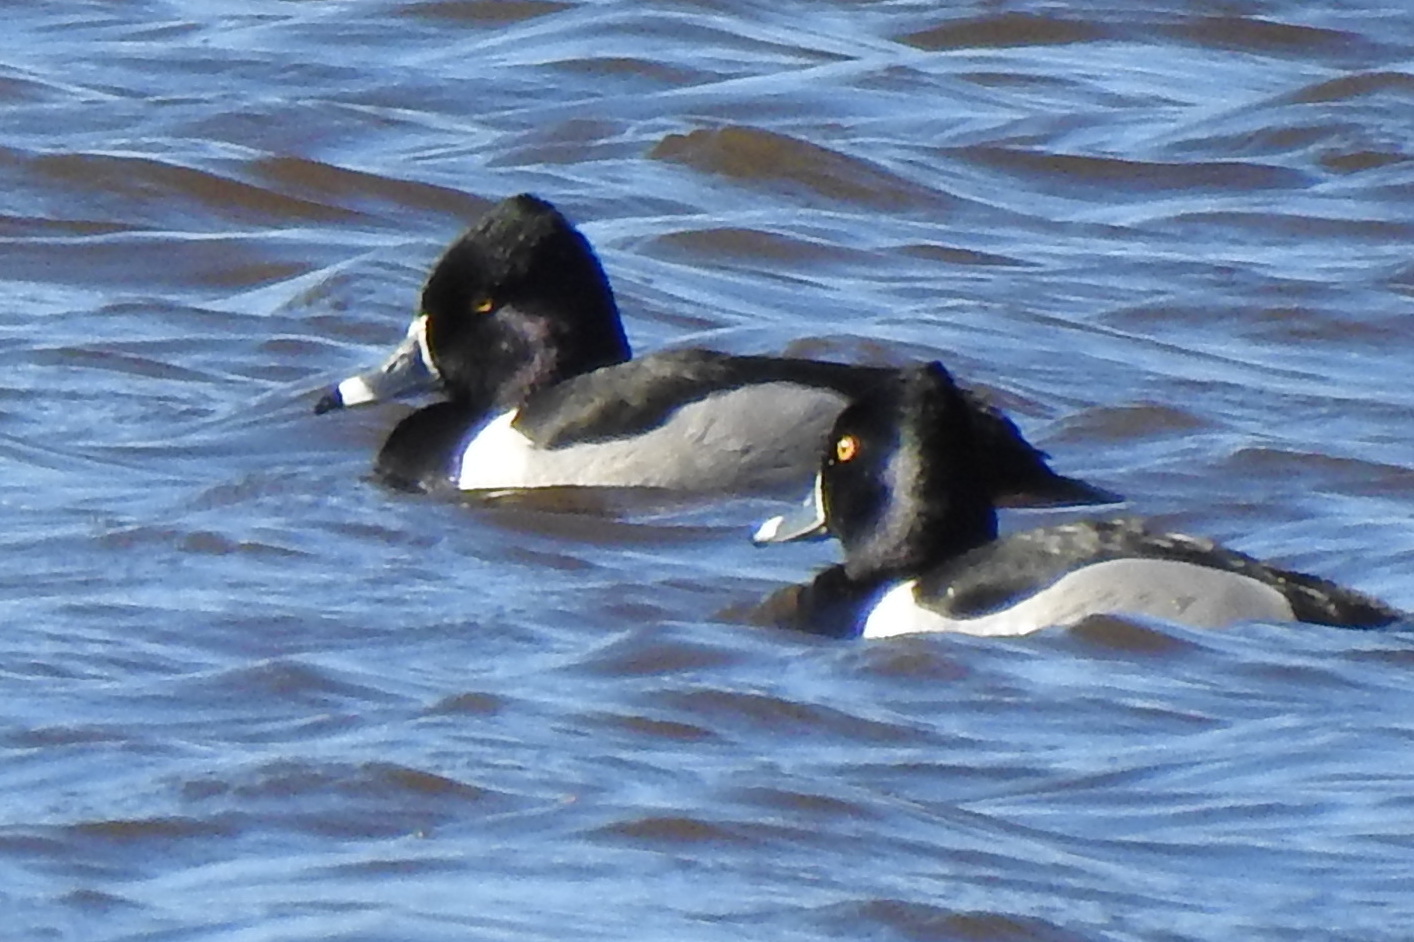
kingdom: Animalia
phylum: Chordata
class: Aves
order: Anseriformes
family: Anatidae
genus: Aythya
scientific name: Aythya collaris
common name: Ring-necked duck
